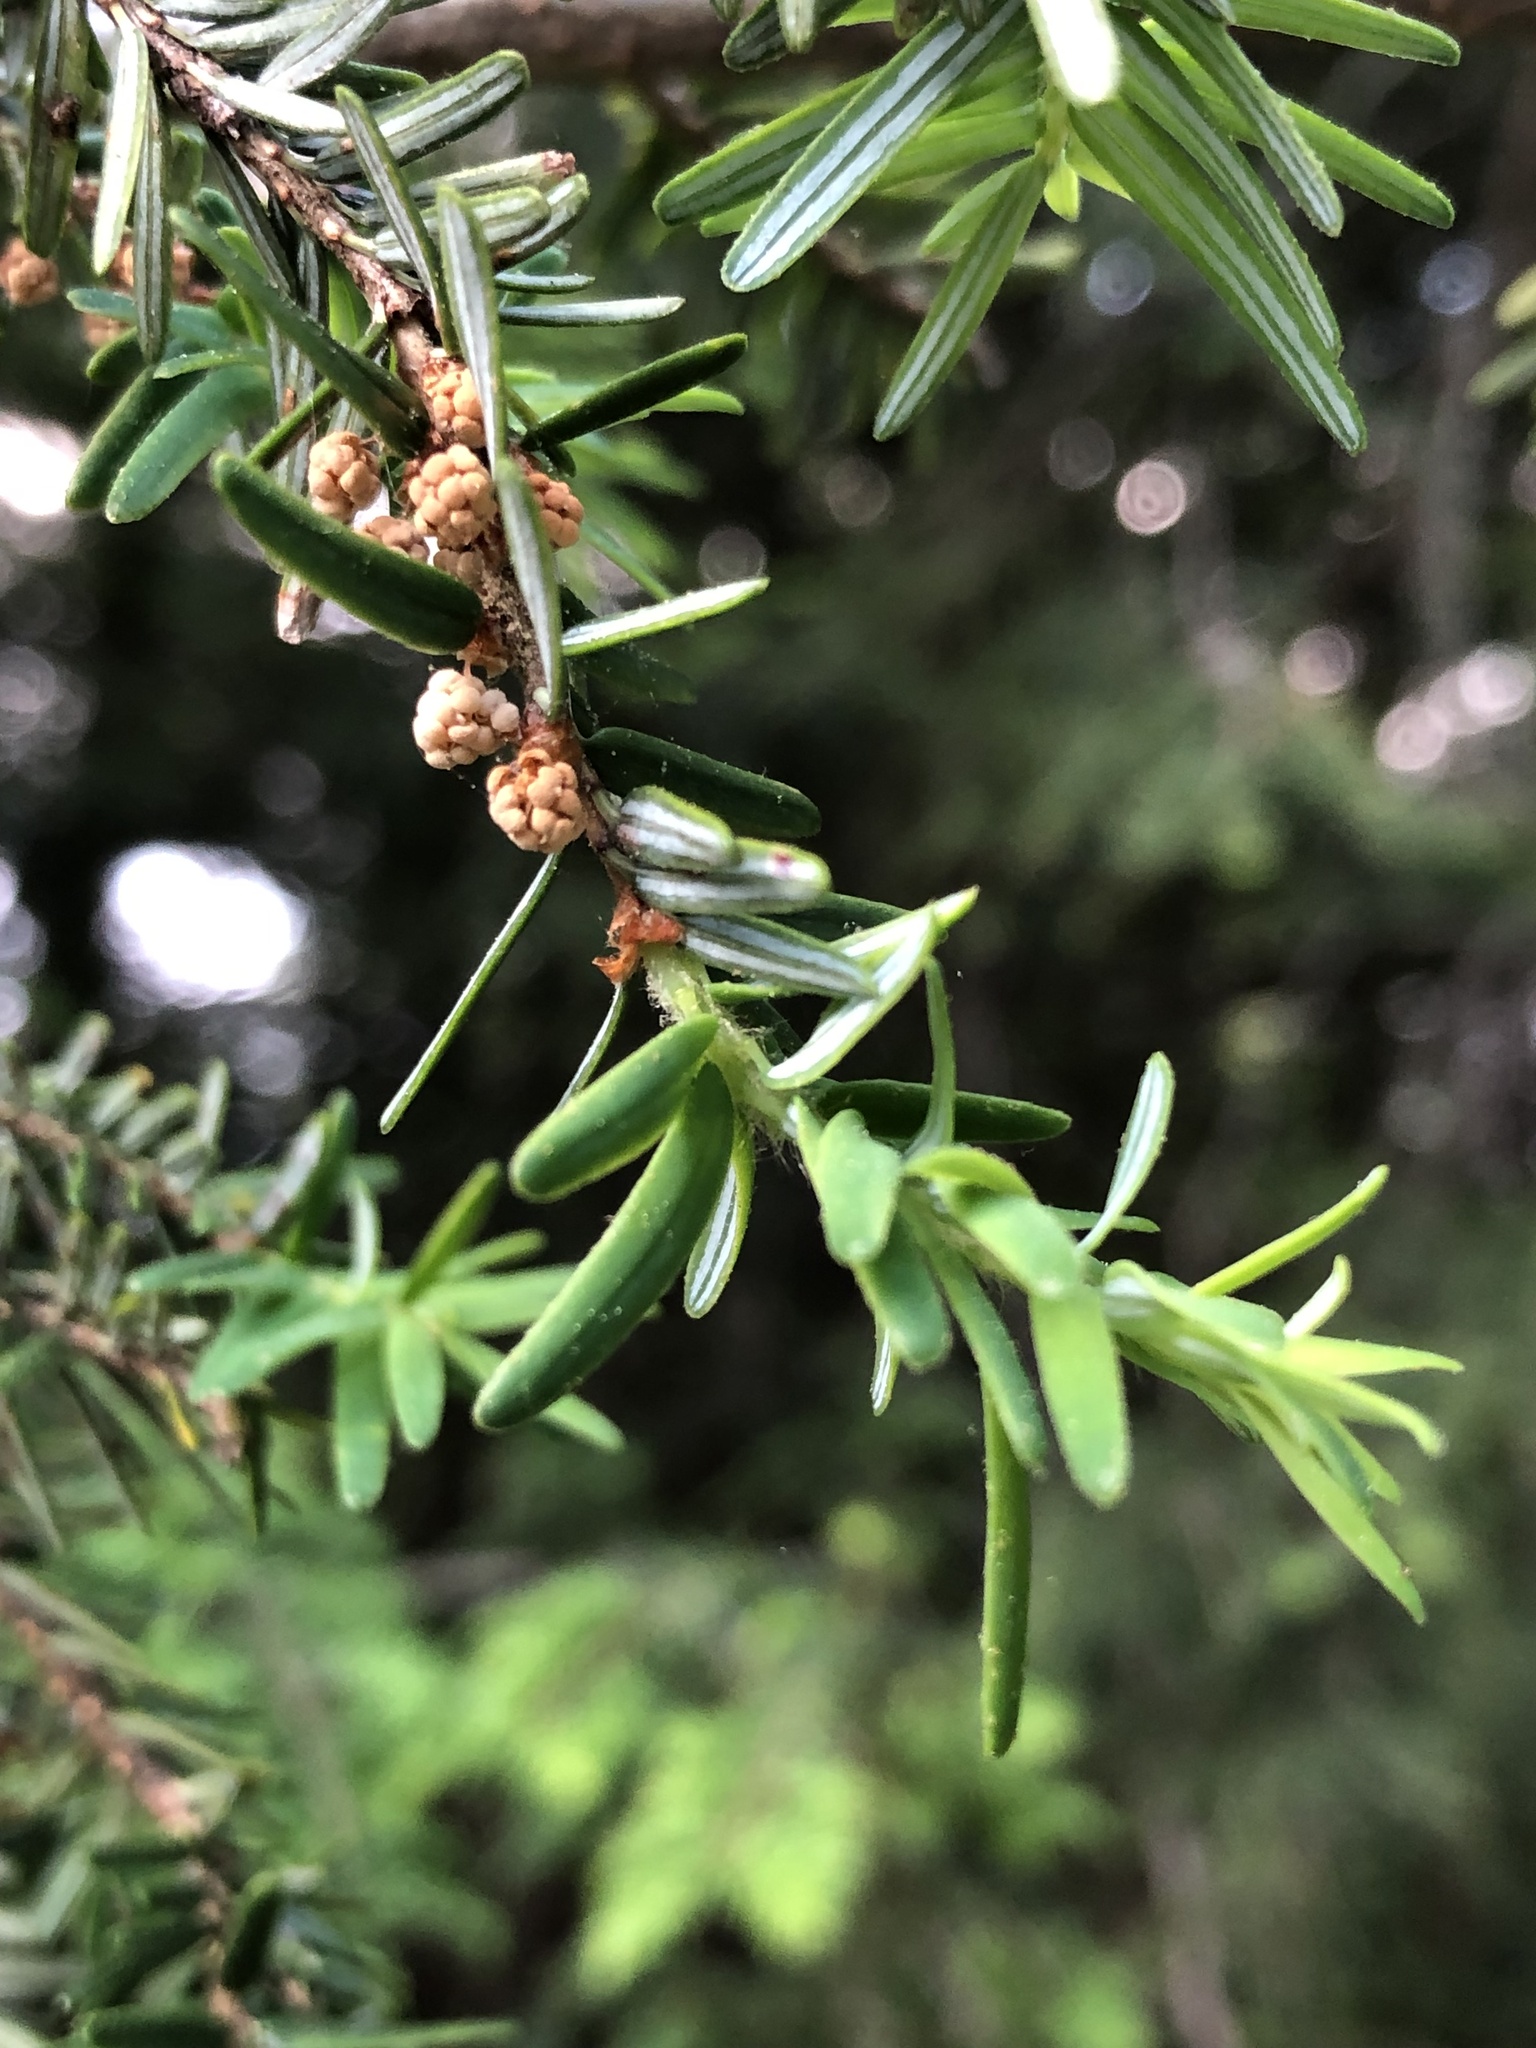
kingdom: Plantae
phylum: Tracheophyta
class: Pinopsida
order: Pinales
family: Pinaceae
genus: Tsuga
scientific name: Tsuga canadensis
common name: Eastern hemlock
